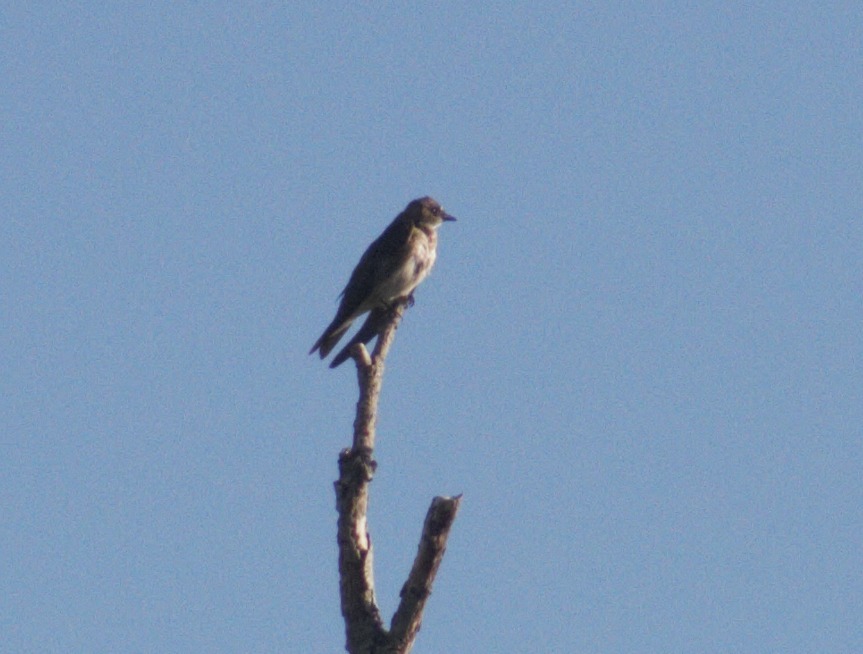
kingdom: Animalia
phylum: Chordata
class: Aves
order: Passeriformes
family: Hirundinidae
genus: Progne
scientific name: Progne tapera
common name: Brown-chested martin
